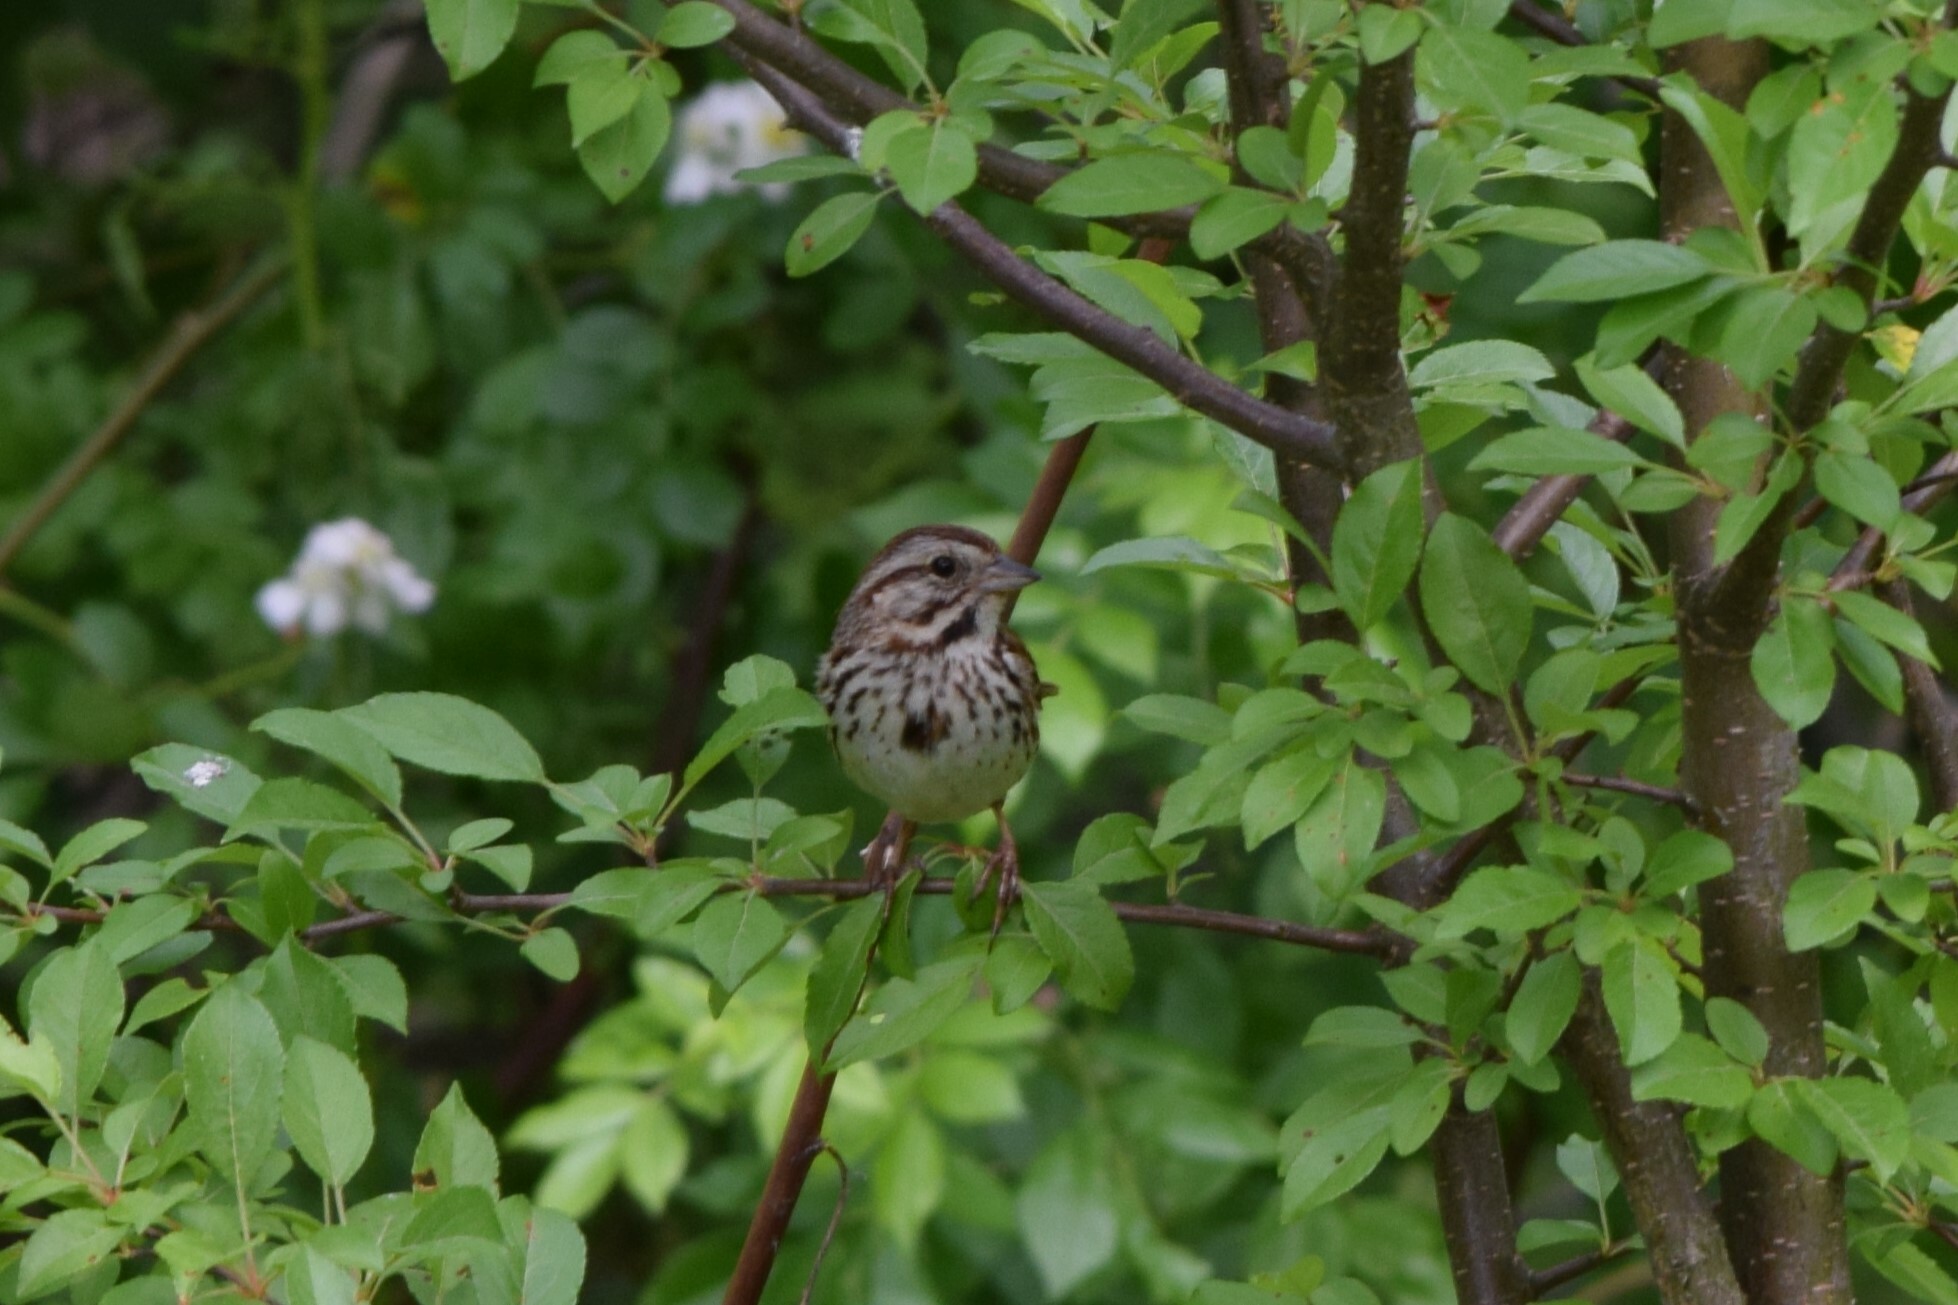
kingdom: Animalia
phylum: Chordata
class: Aves
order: Passeriformes
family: Passerellidae
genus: Melospiza
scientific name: Melospiza melodia
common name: Song sparrow
